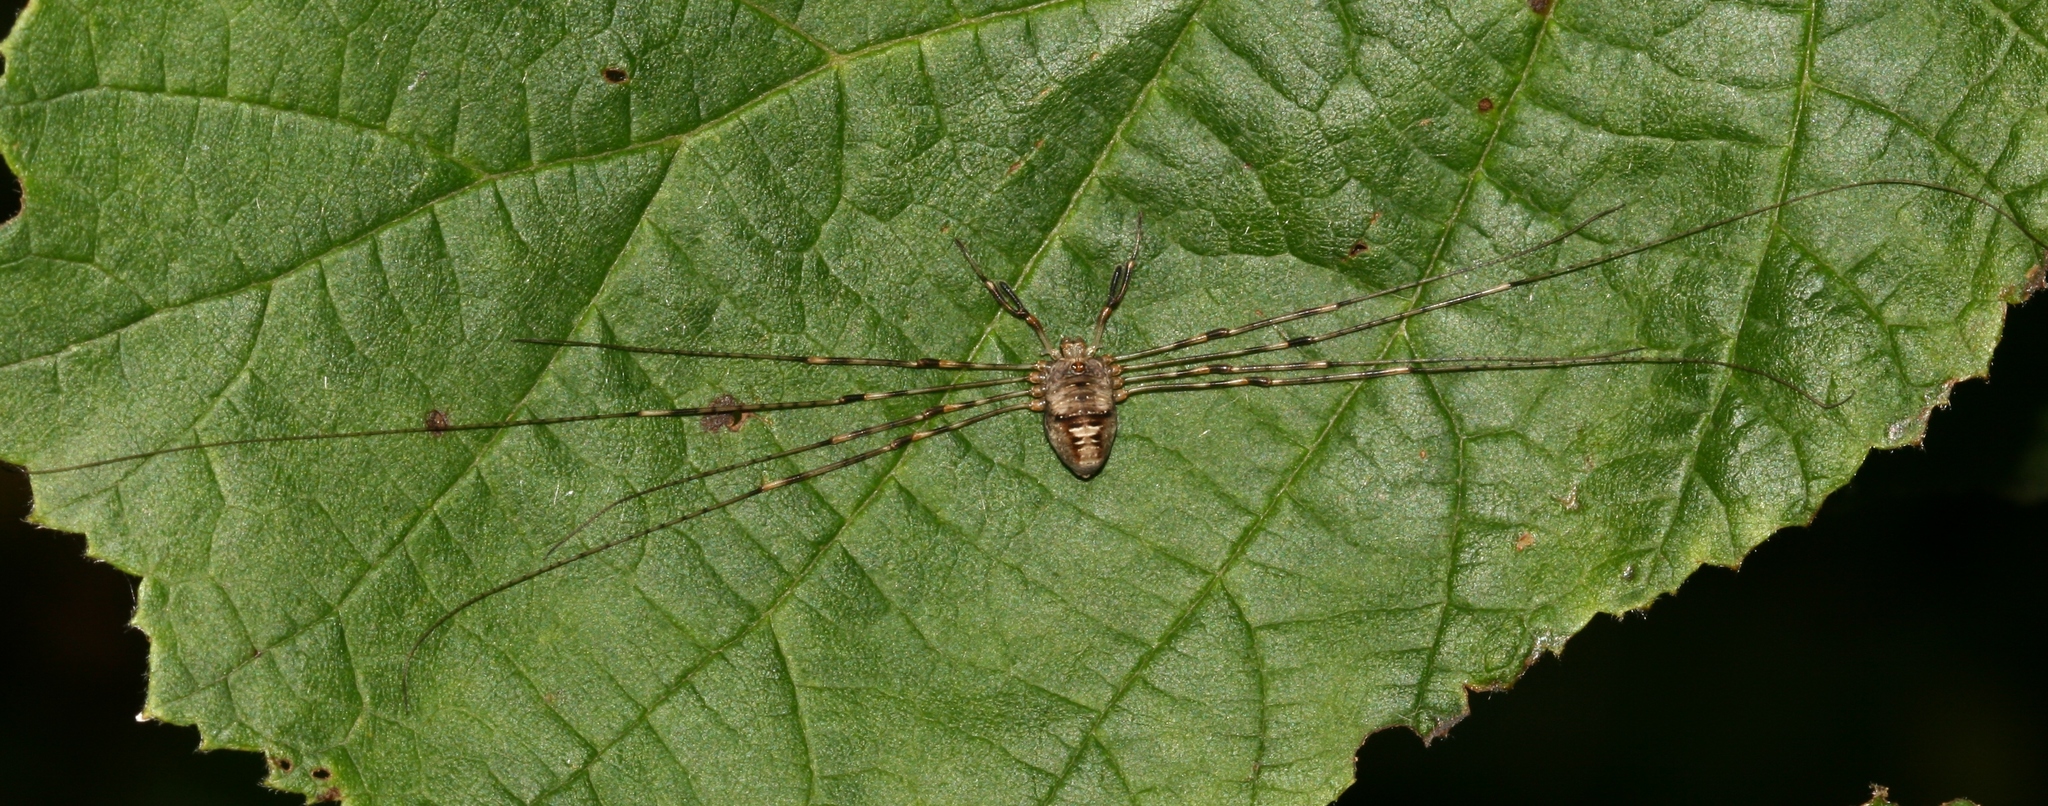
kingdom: Animalia
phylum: Arthropoda
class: Arachnida
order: Opiliones
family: Phalangiidae
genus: Dicranopalpus
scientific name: Dicranopalpus ramosus
